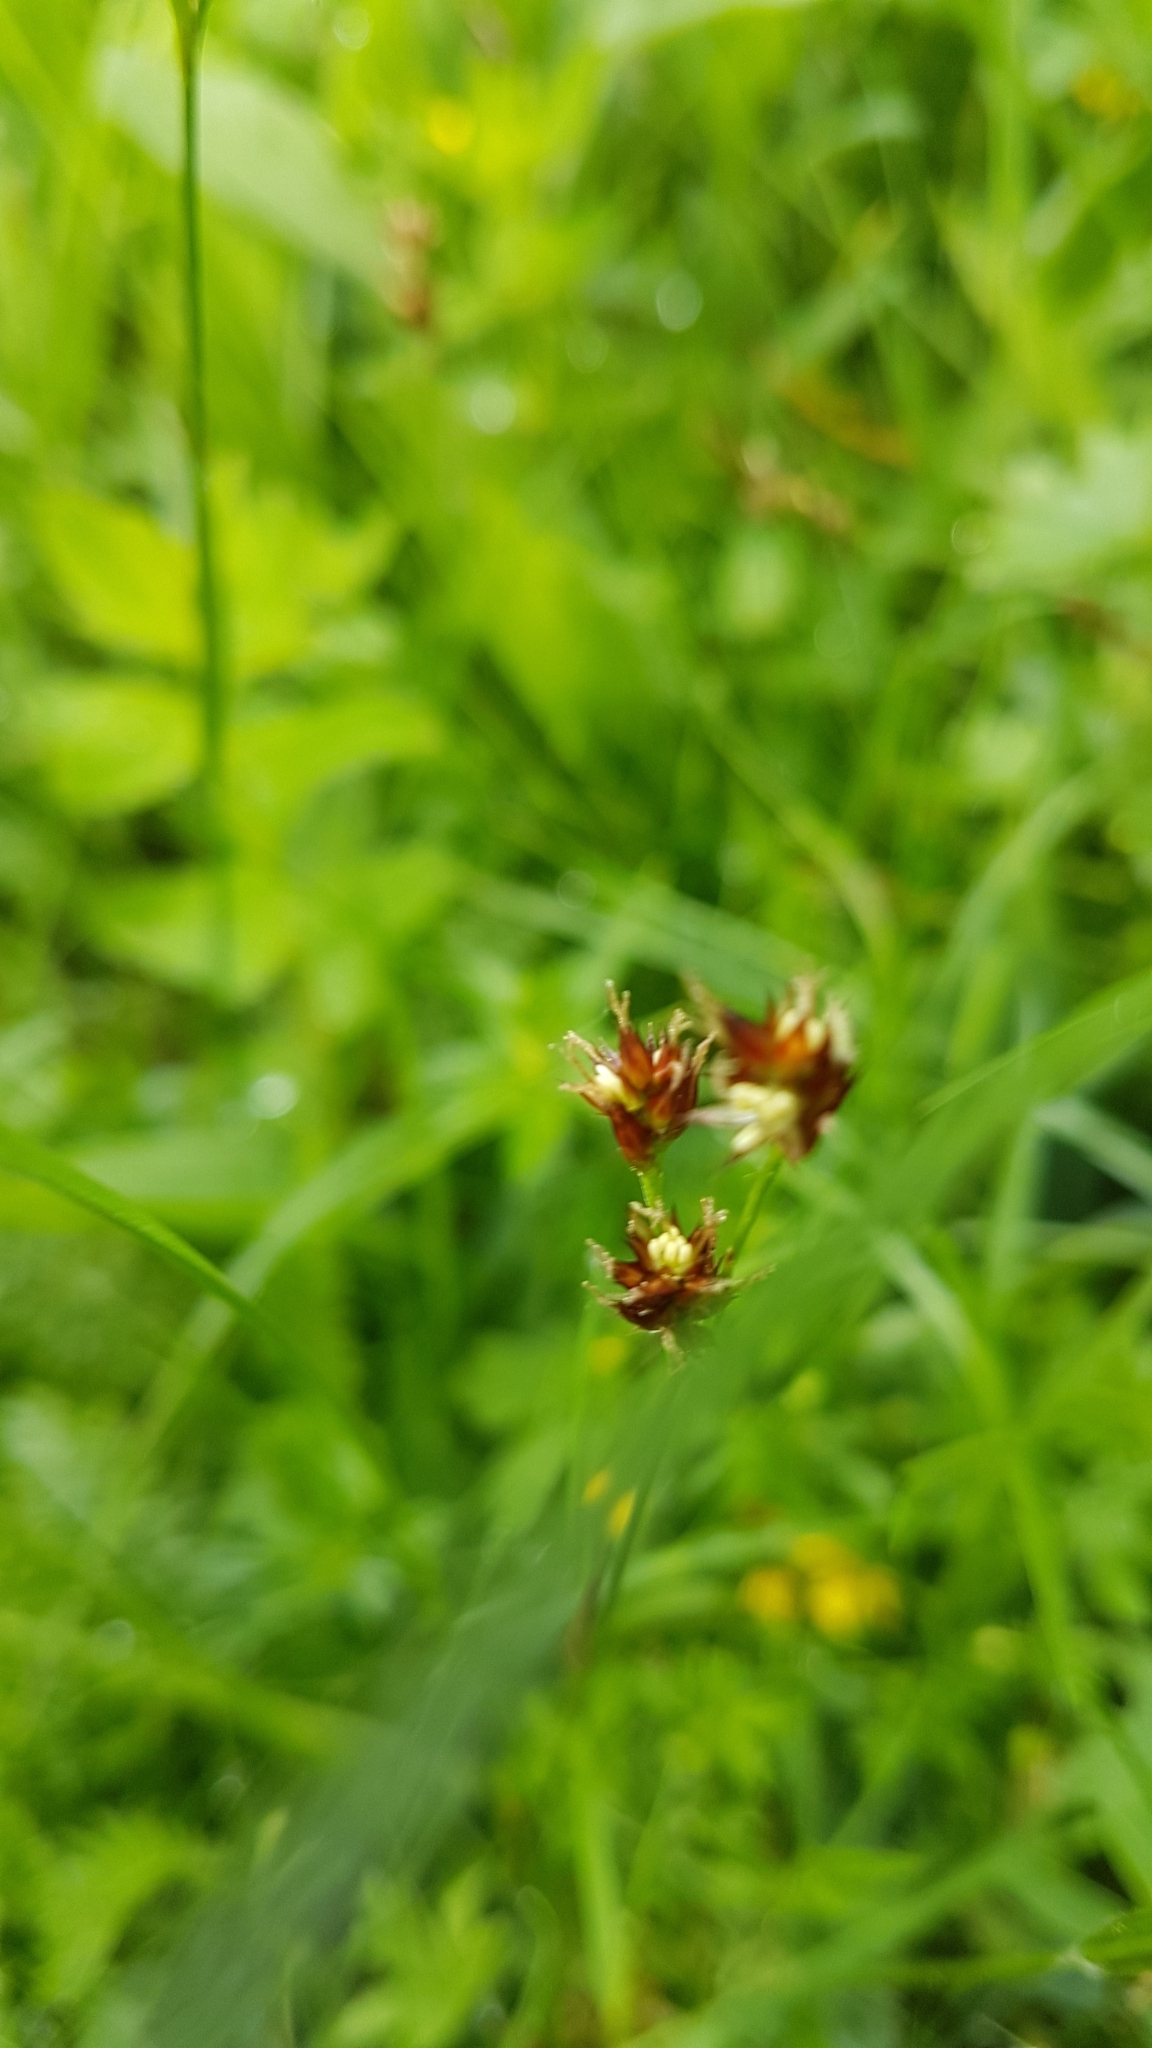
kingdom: Plantae
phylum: Tracheophyta
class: Liliopsida
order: Poales
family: Juncaceae
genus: Luzula
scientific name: Luzula campestris
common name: Field wood-rush
